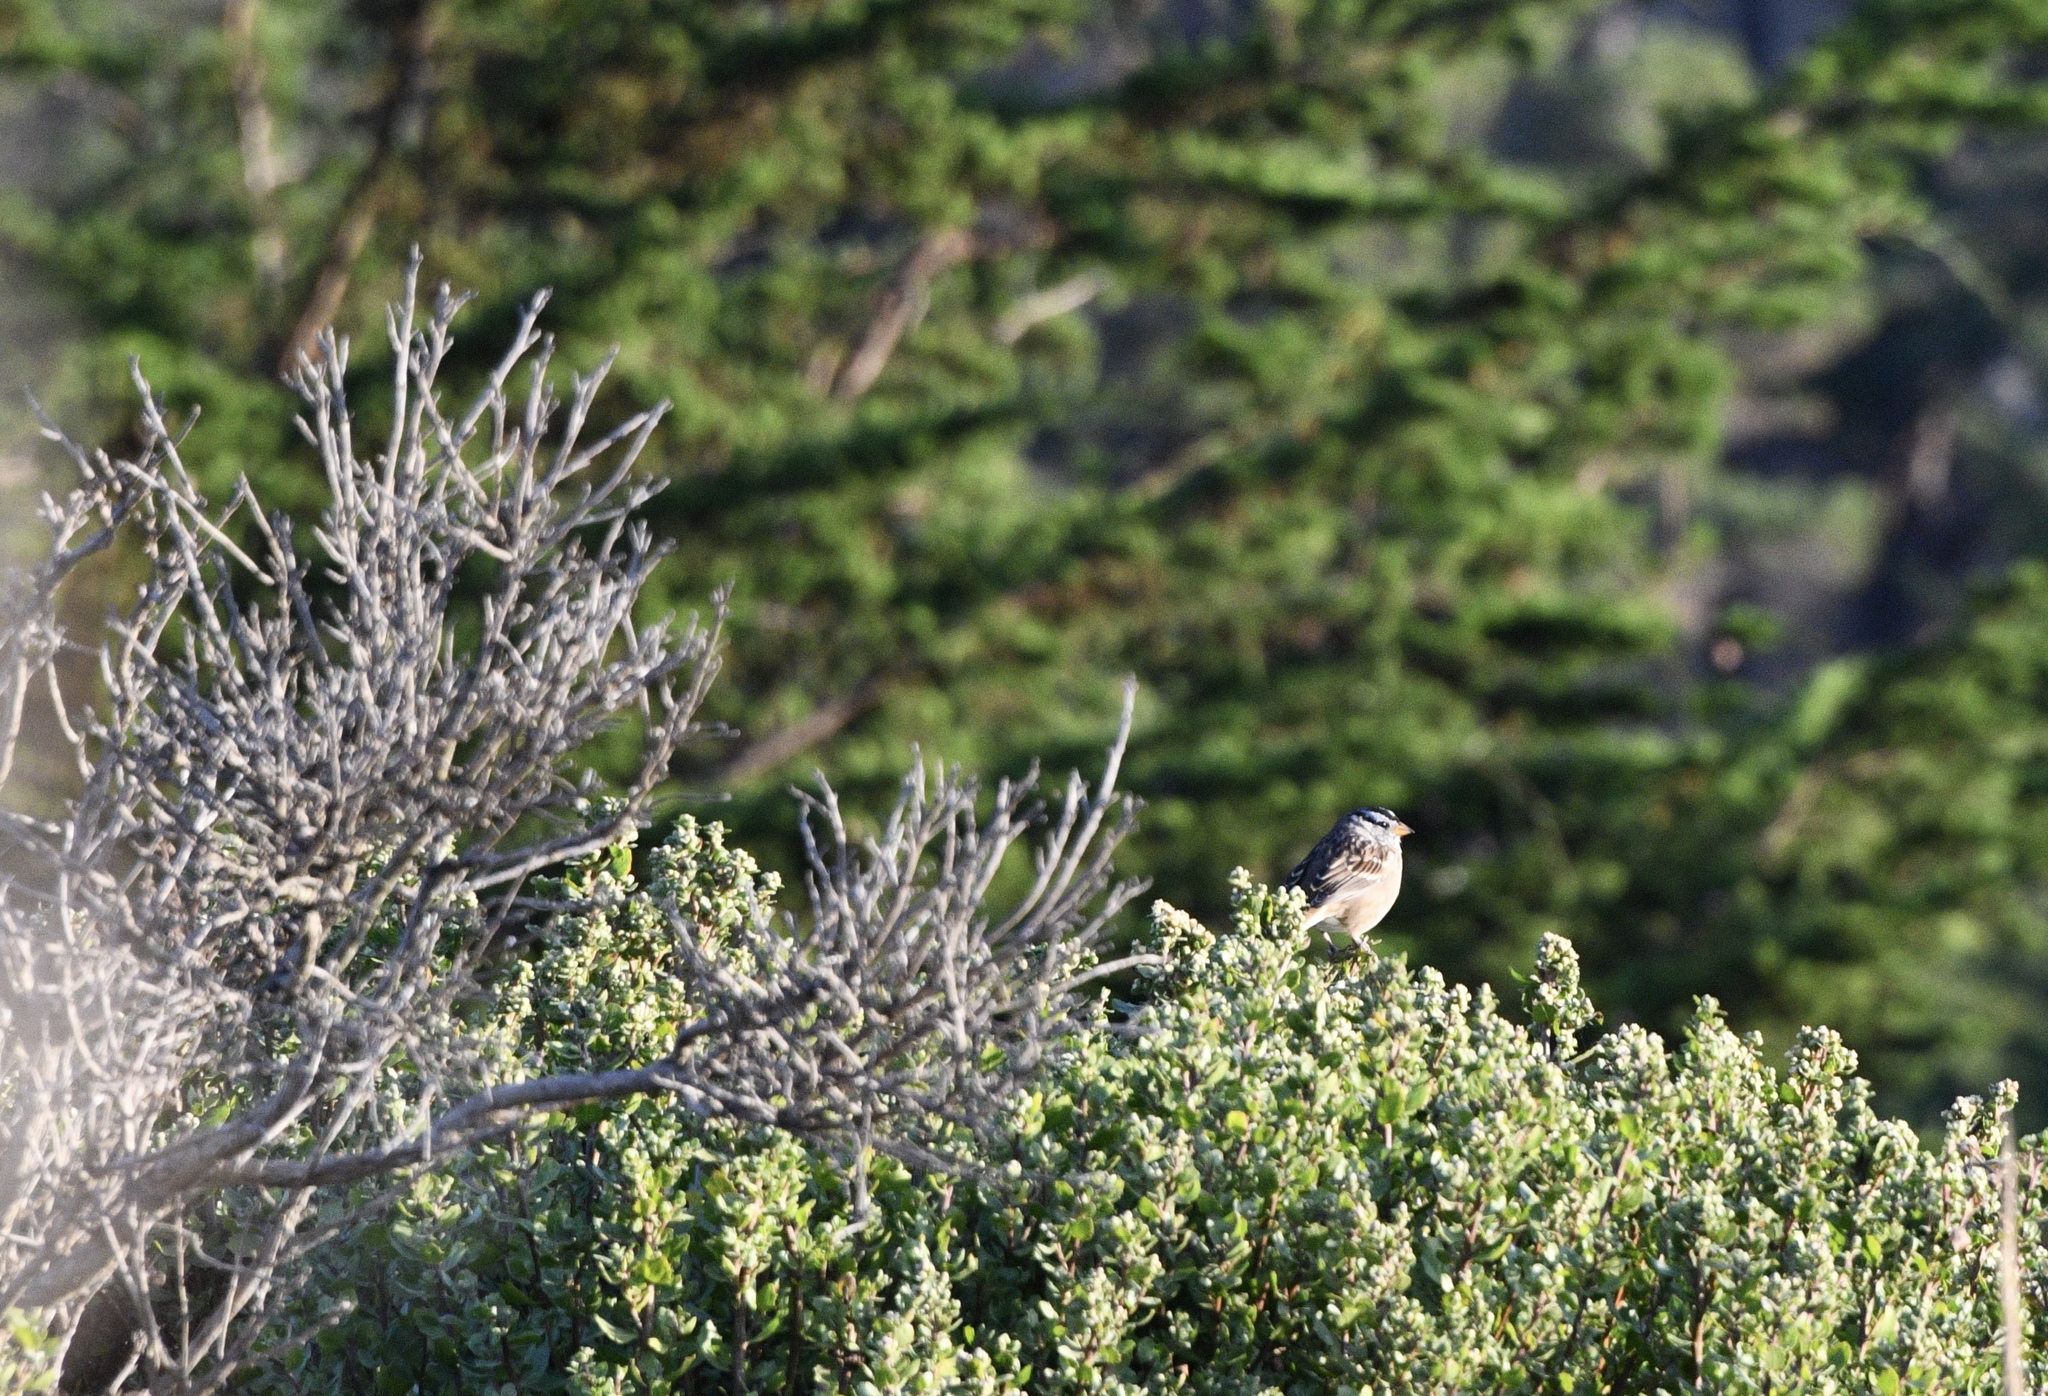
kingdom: Animalia
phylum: Chordata
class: Aves
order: Passeriformes
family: Passerellidae
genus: Zonotrichia
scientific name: Zonotrichia leucophrys
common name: White-crowned sparrow
